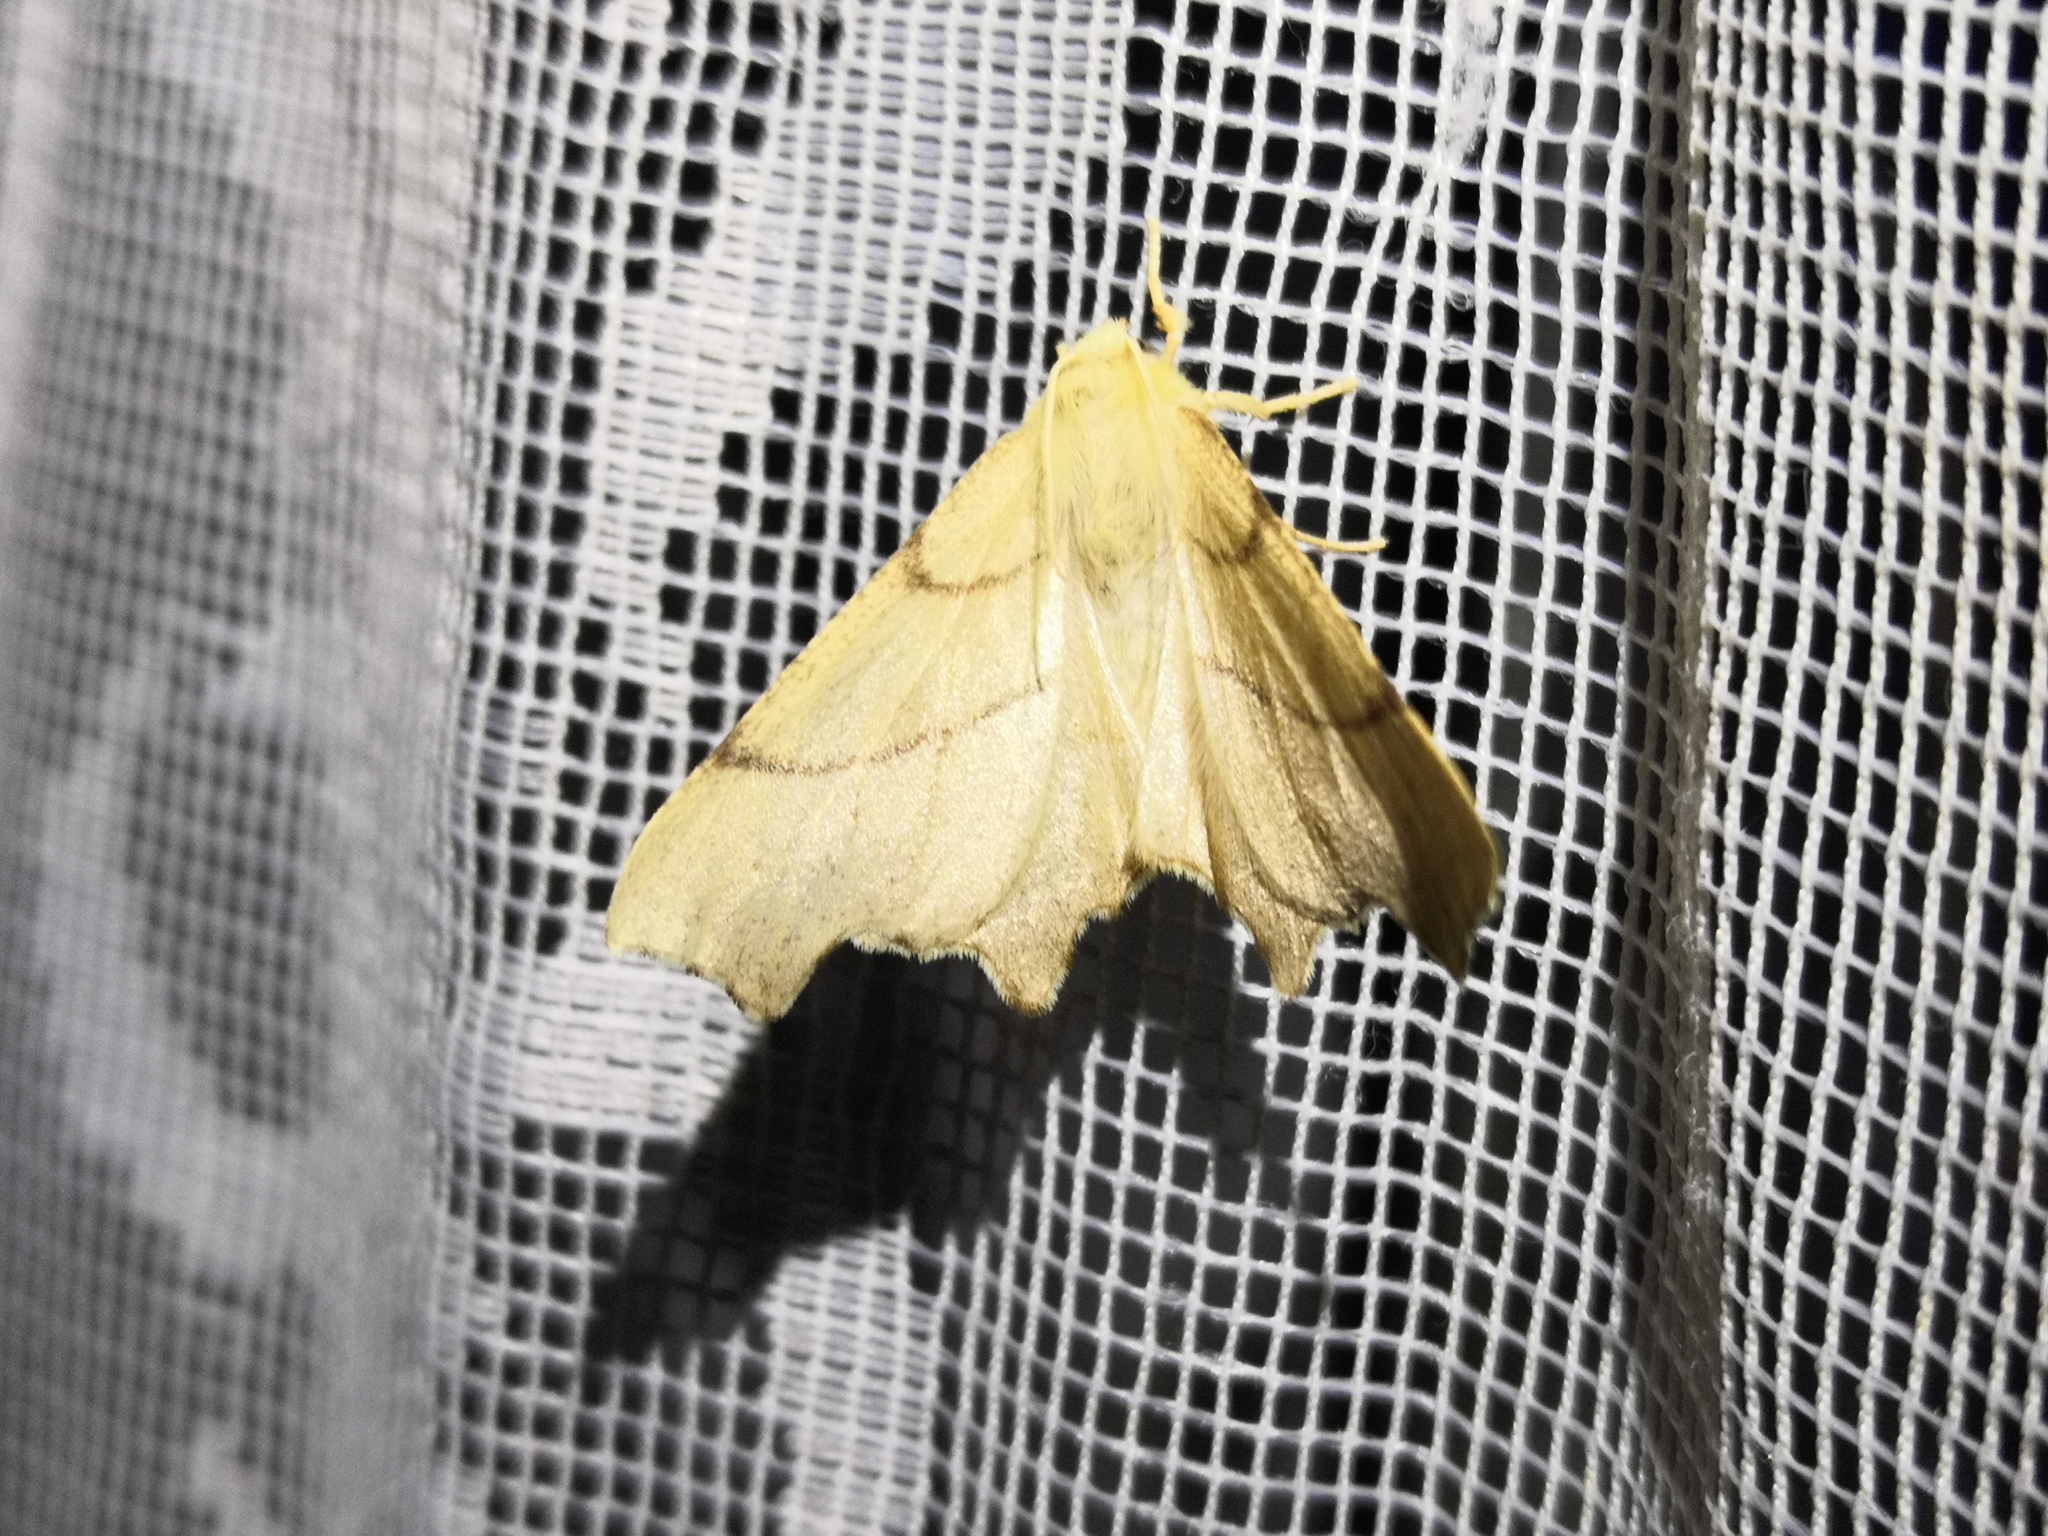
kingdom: Animalia
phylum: Arthropoda
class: Insecta
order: Lepidoptera
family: Geometridae
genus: Ennomos
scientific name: Ennomos erosaria
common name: September thorn
